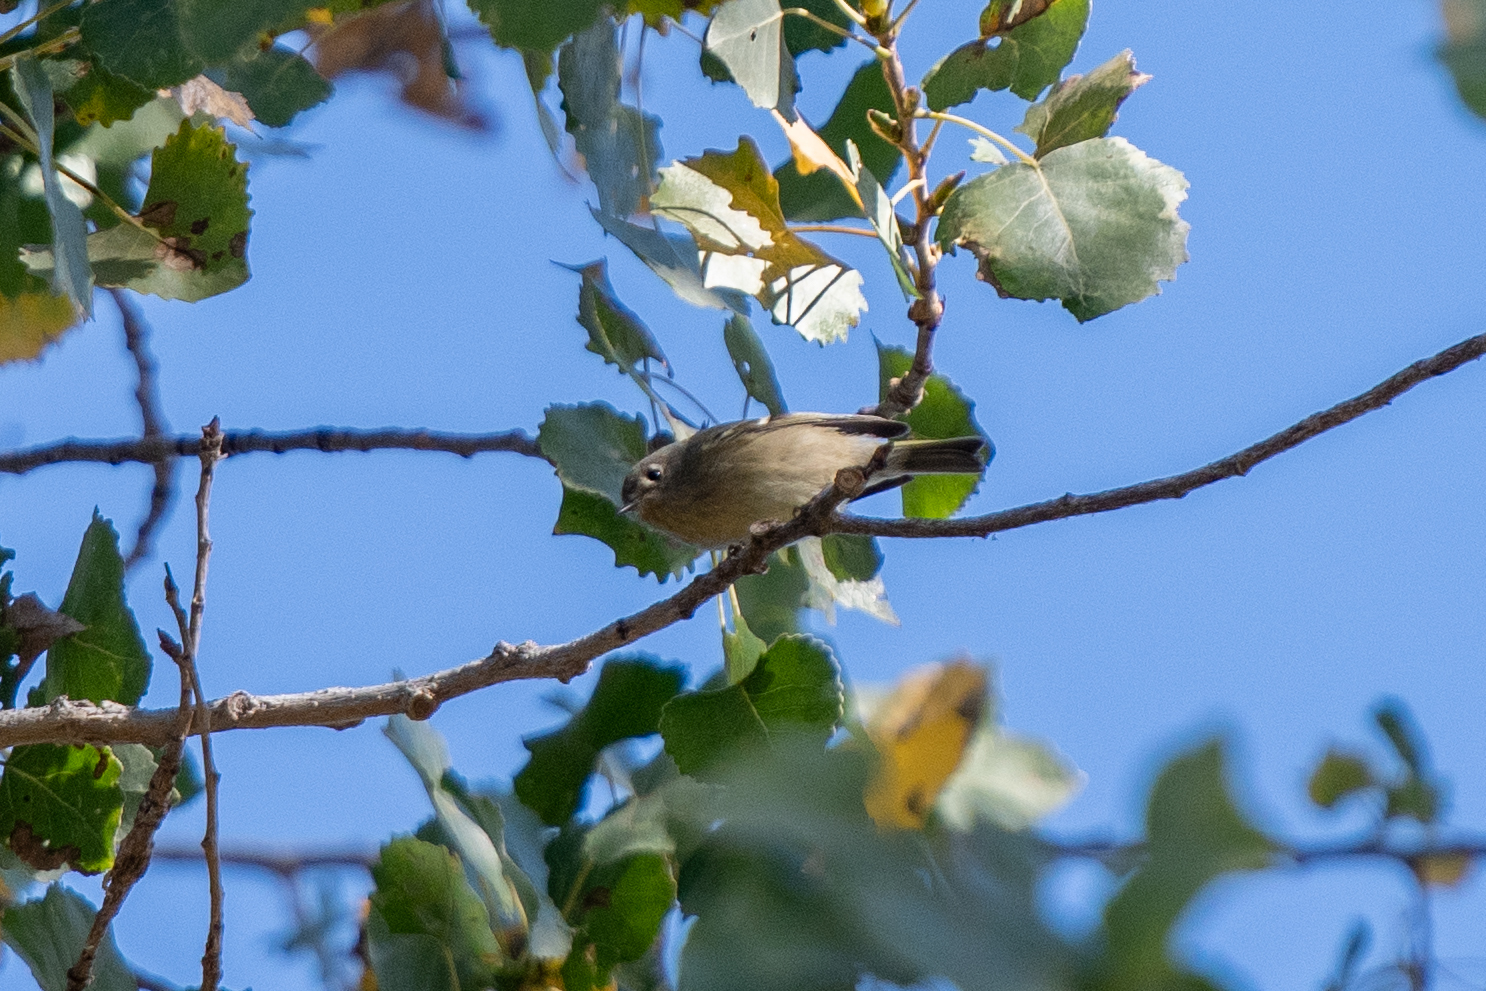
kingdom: Animalia
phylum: Chordata
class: Aves
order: Passeriformes
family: Regulidae
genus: Regulus
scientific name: Regulus calendula
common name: Ruby-crowned kinglet
